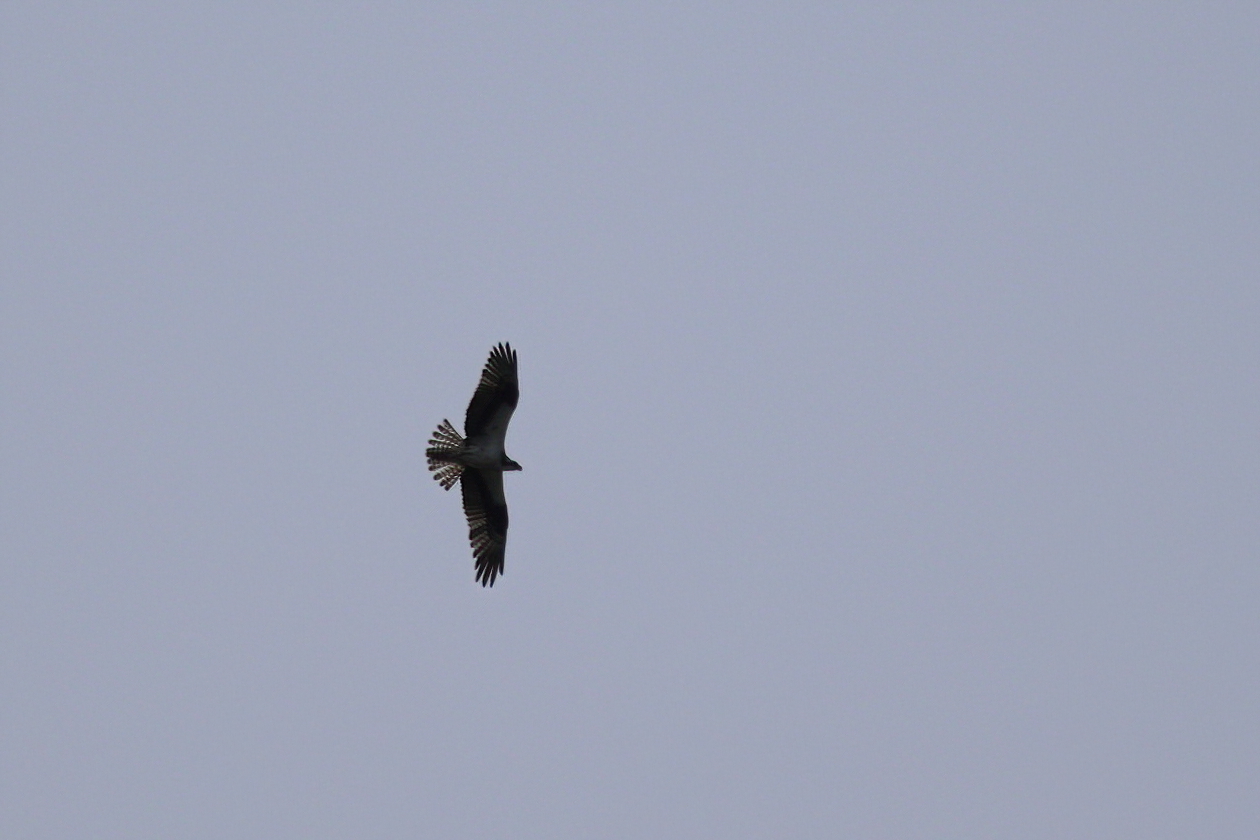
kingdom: Animalia
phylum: Chordata
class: Aves
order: Accipitriformes
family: Pandionidae
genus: Pandion
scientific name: Pandion haliaetus
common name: Osprey
